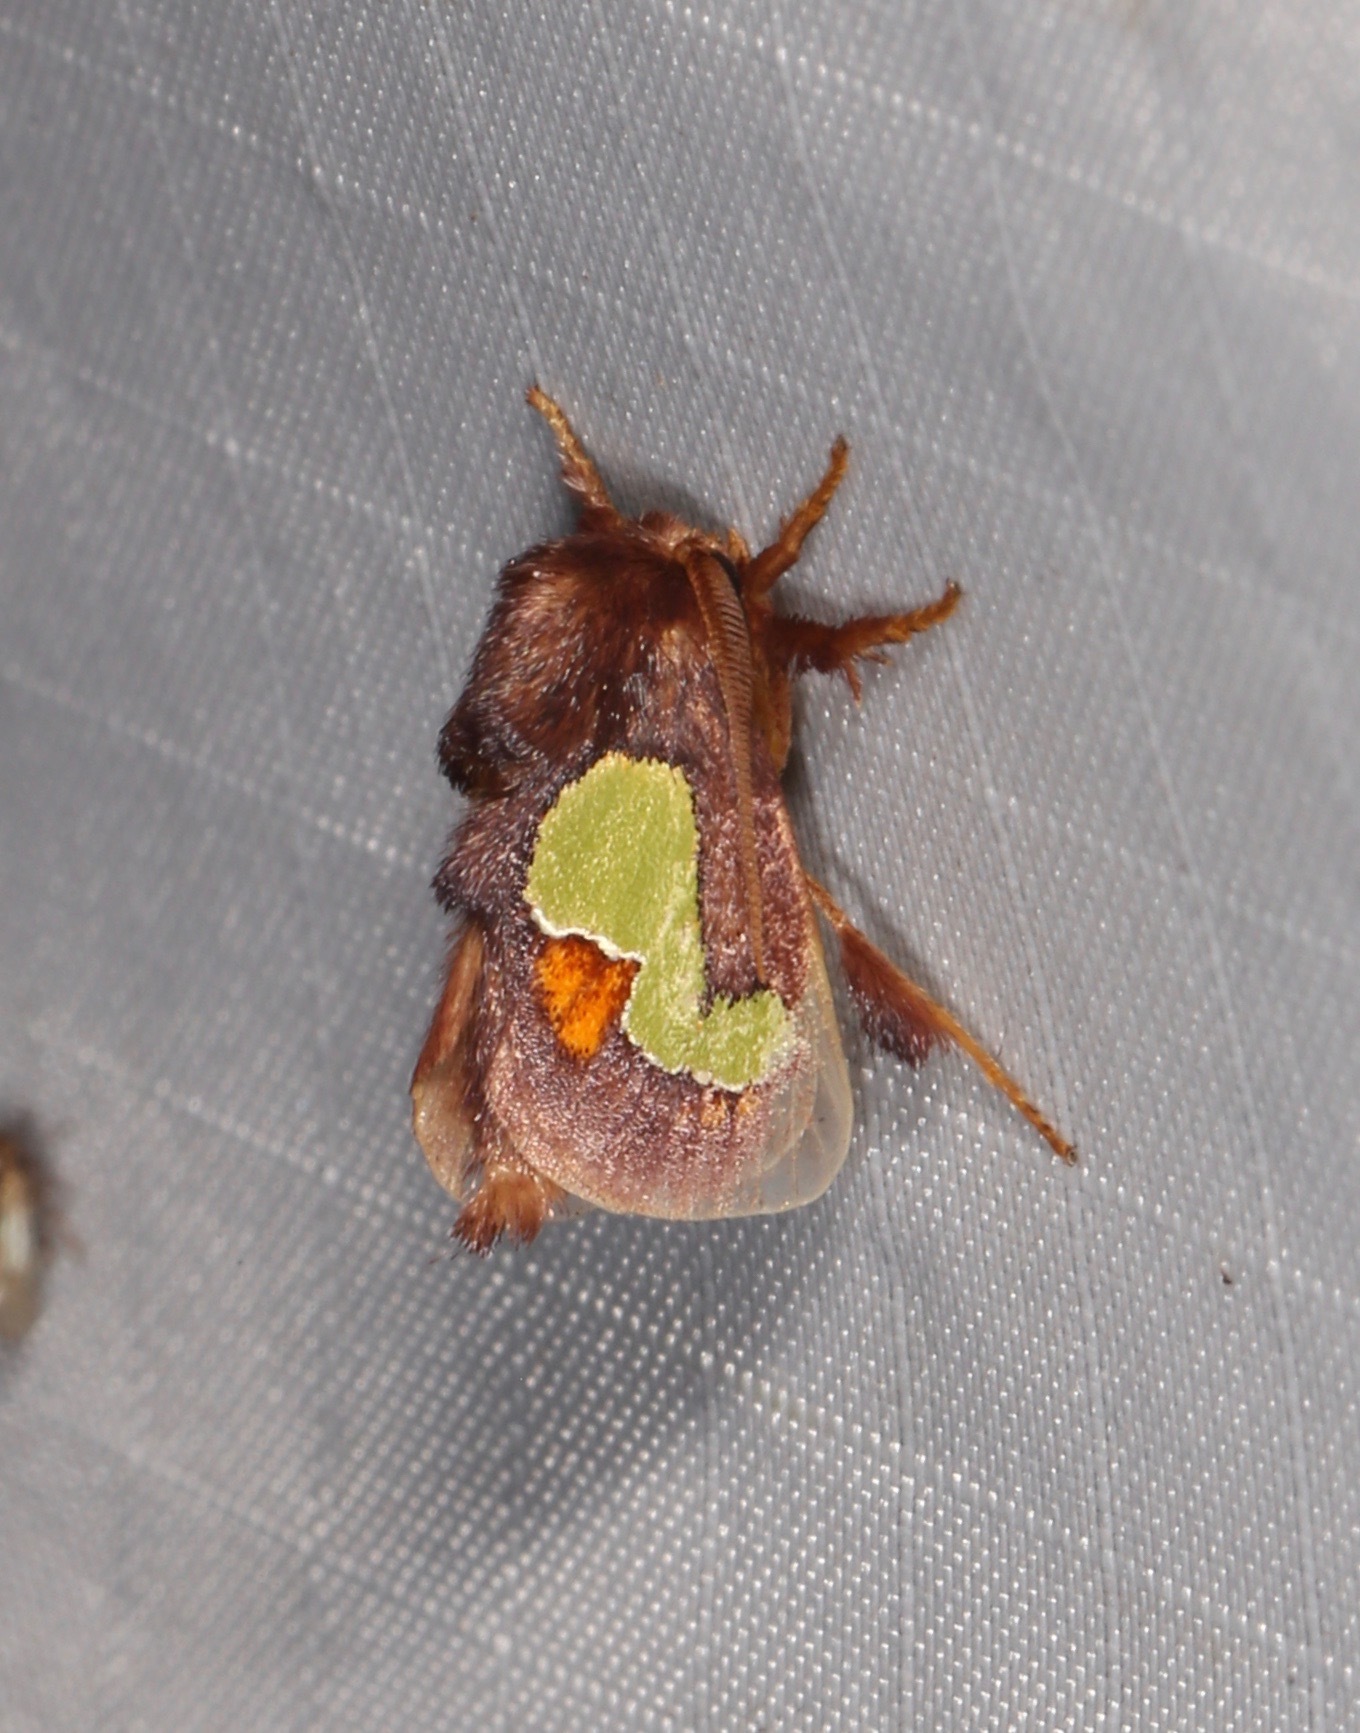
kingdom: Animalia
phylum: Arthropoda
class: Insecta
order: Lepidoptera
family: Limacodidae
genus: Euclea
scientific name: Euclea nanina
